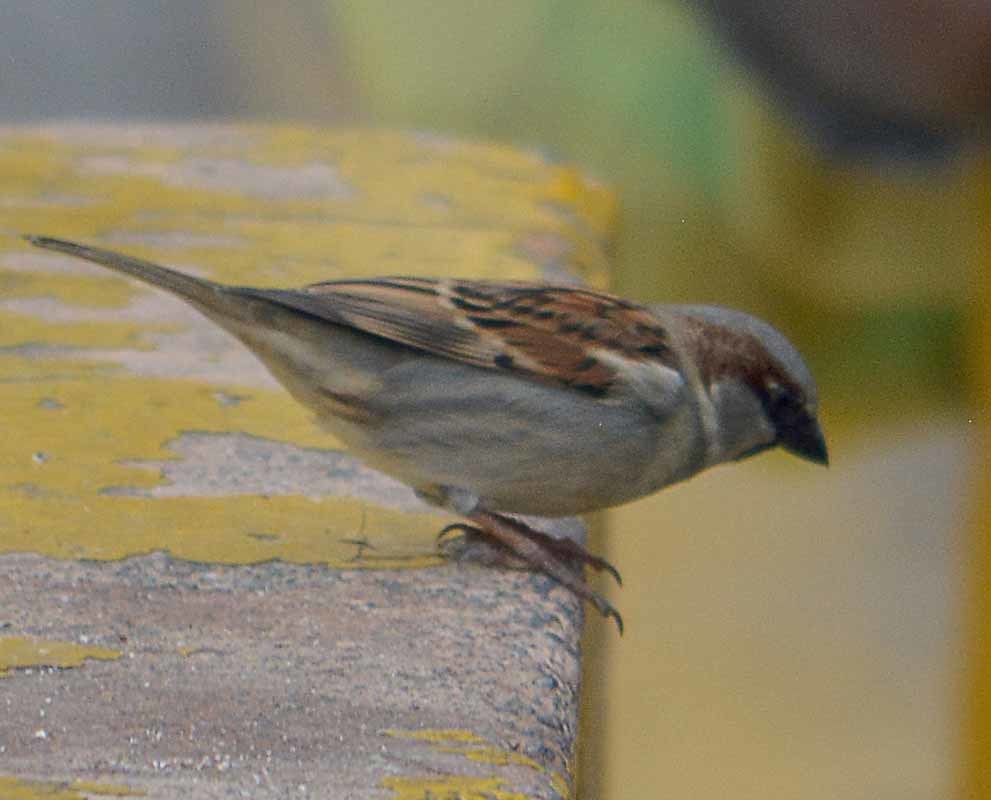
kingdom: Animalia
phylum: Chordata
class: Aves
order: Passeriformes
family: Passeridae
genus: Passer
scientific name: Passer domesticus
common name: House sparrow
